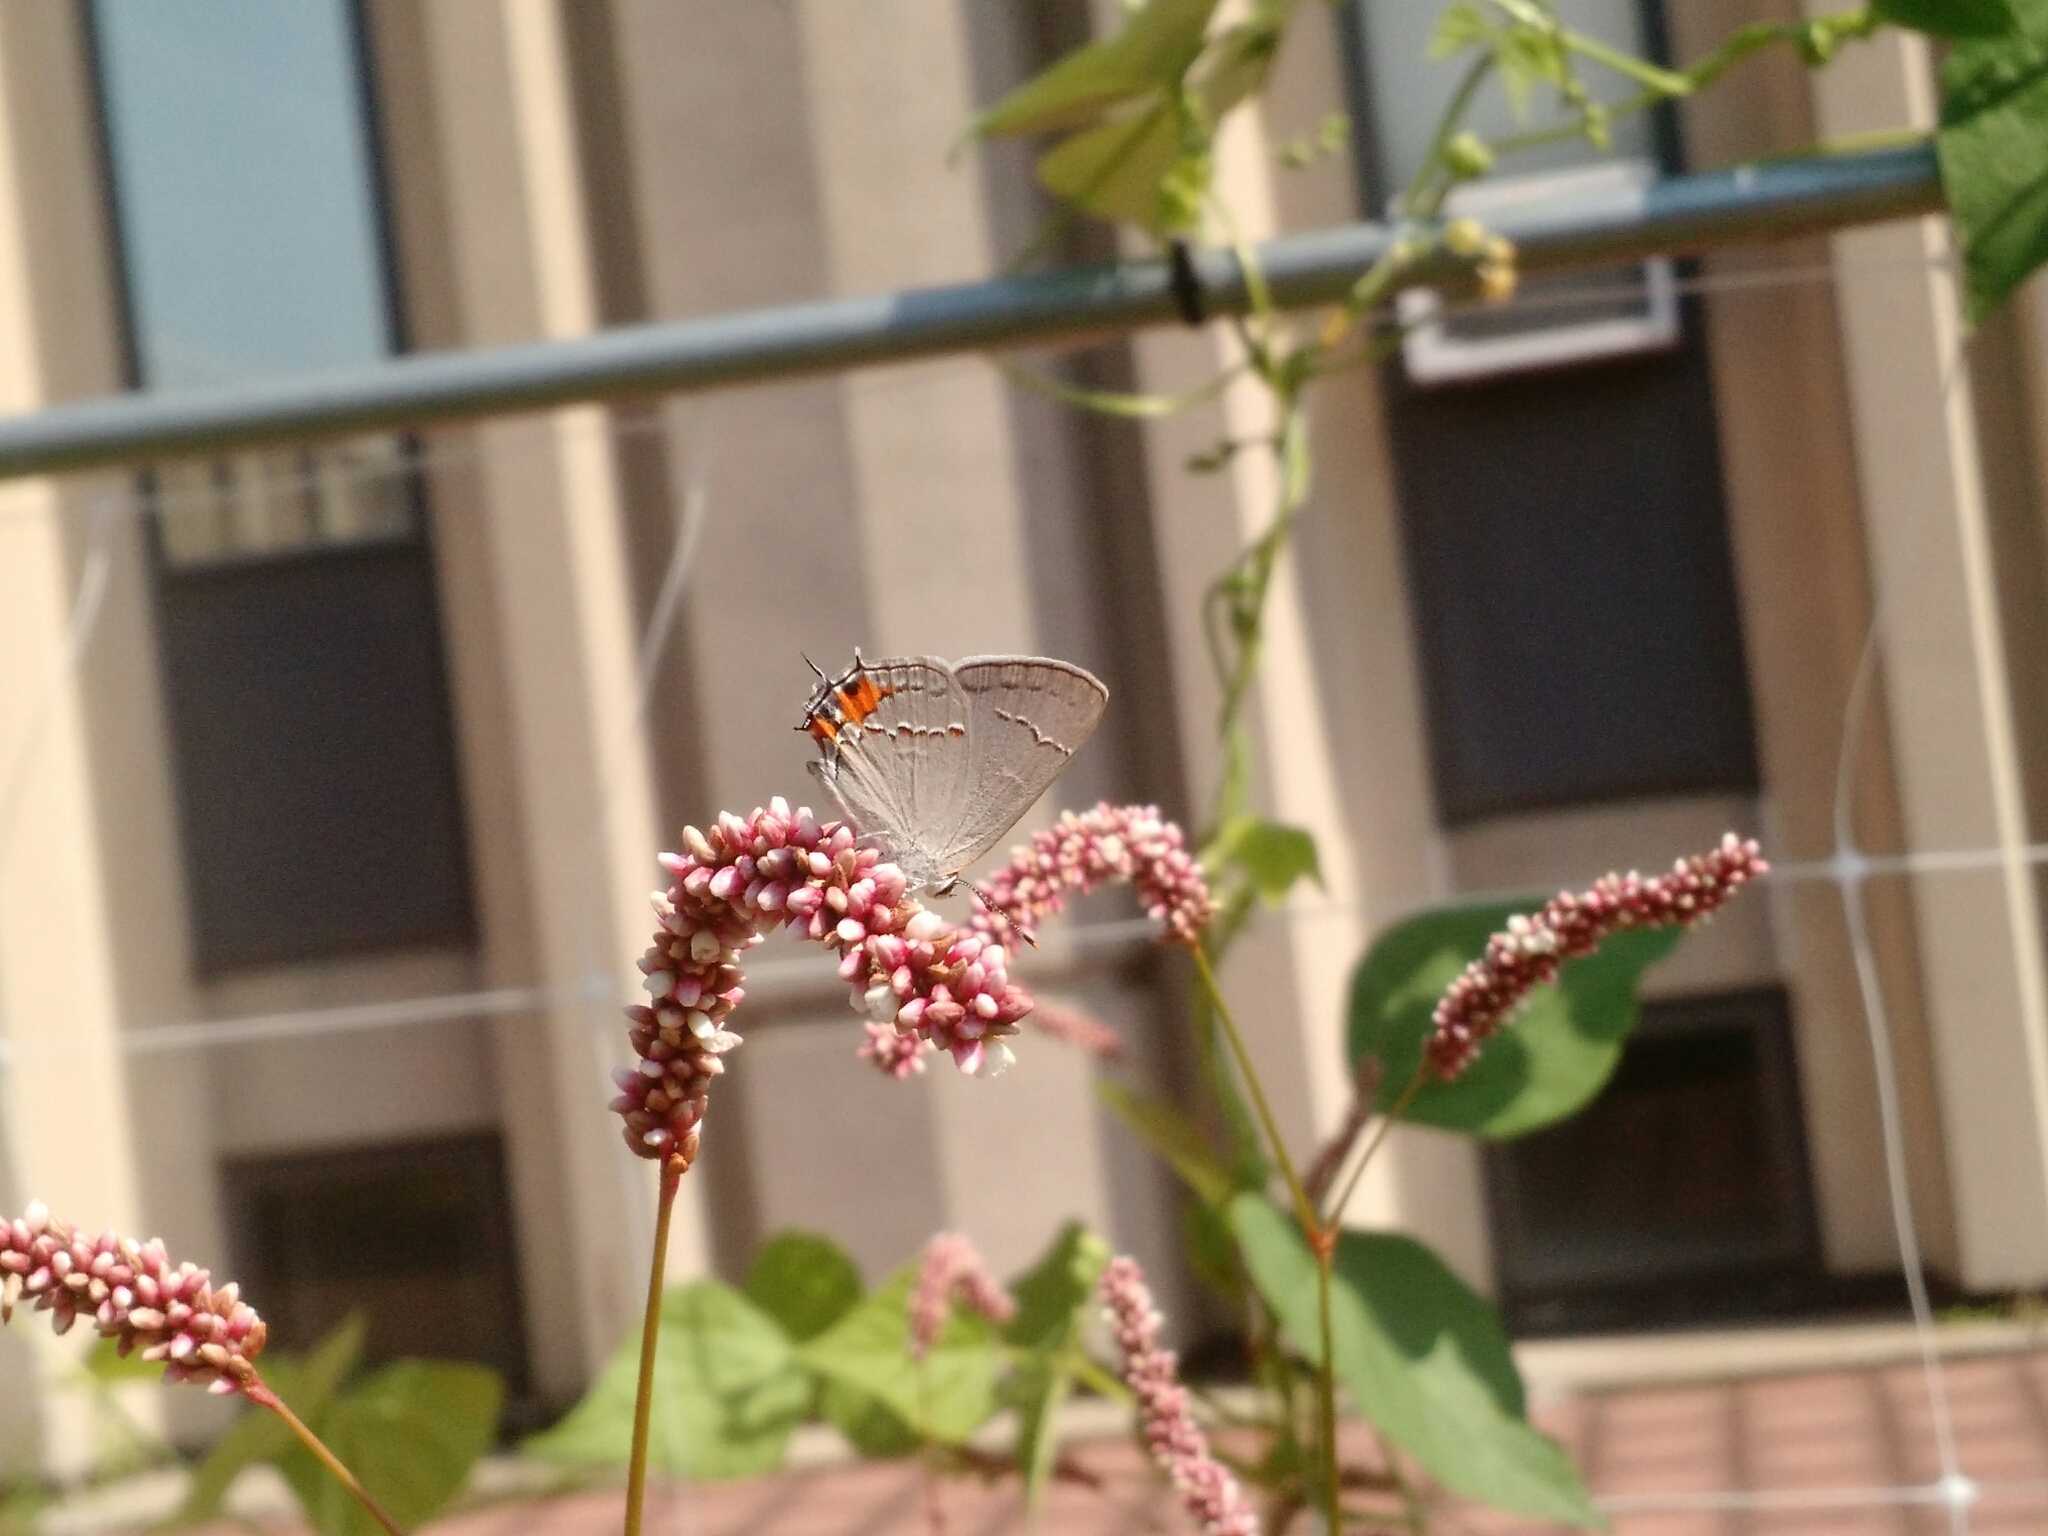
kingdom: Animalia
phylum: Arthropoda
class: Insecta
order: Lepidoptera
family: Lycaenidae
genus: Strymon
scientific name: Strymon melinus
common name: Gray hairstreak
